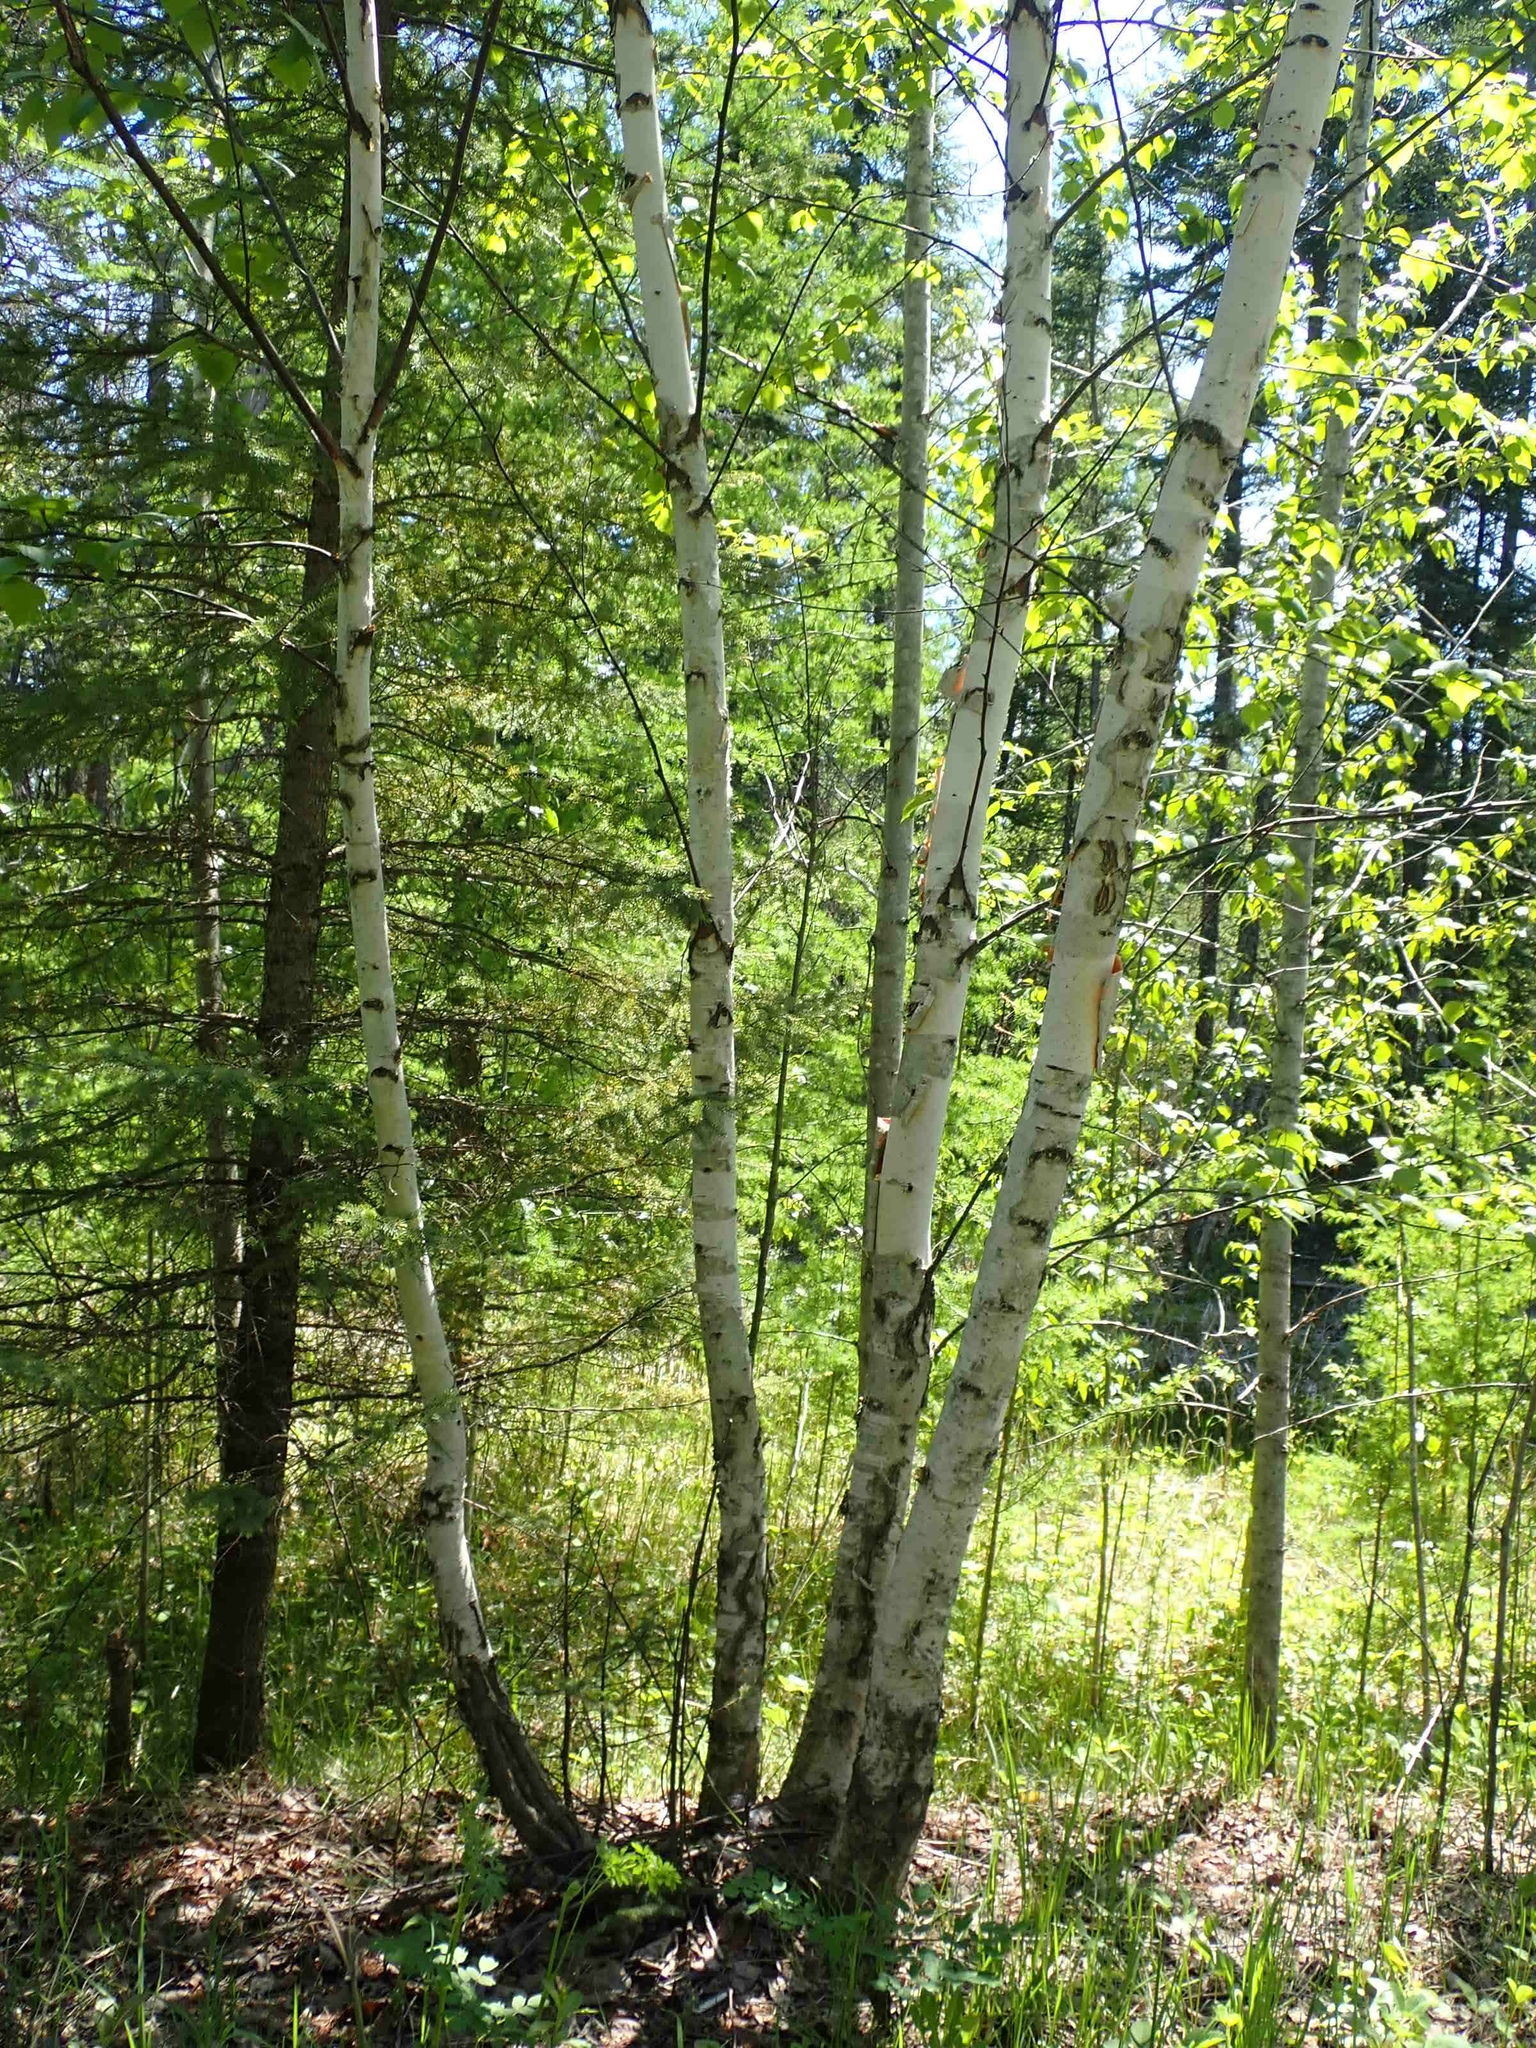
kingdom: Plantae
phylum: Tracheophyta
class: Magnoliopsida
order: Fagales
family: Betulaceae
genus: Betula
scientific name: Betula papyrifera
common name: Paper birch
